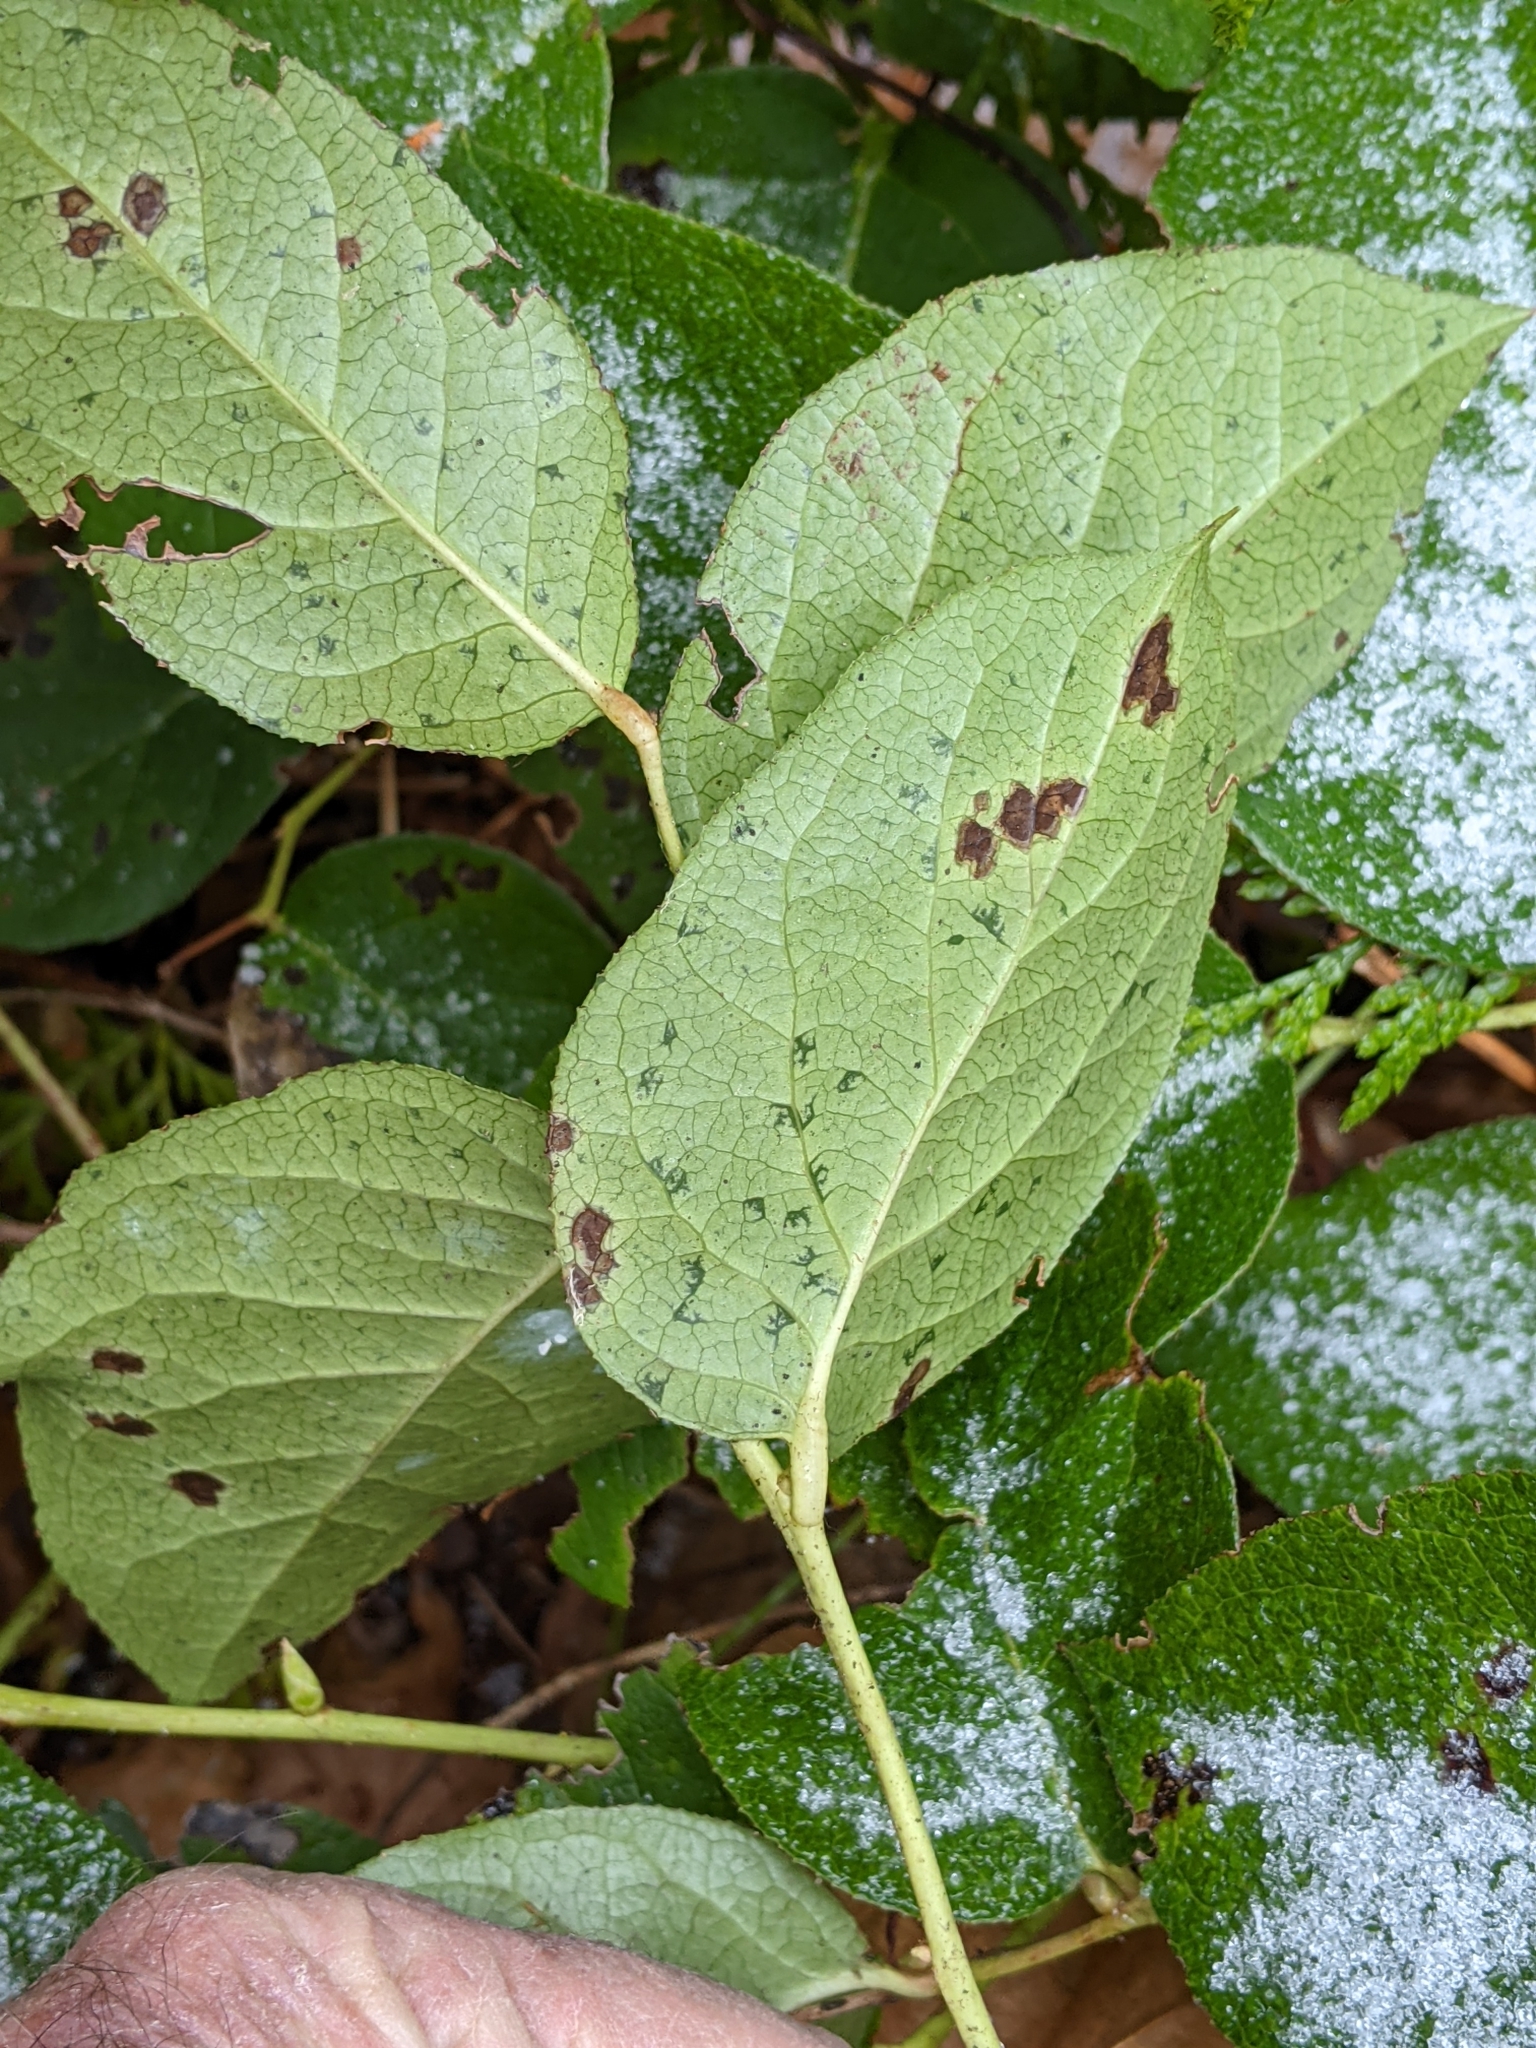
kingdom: Plantae
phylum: Tracheophyta
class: Magnoliopsida
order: Ericales
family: Ericaceae
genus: Gaultheria
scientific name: Gaultheria shallon
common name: Shallon
